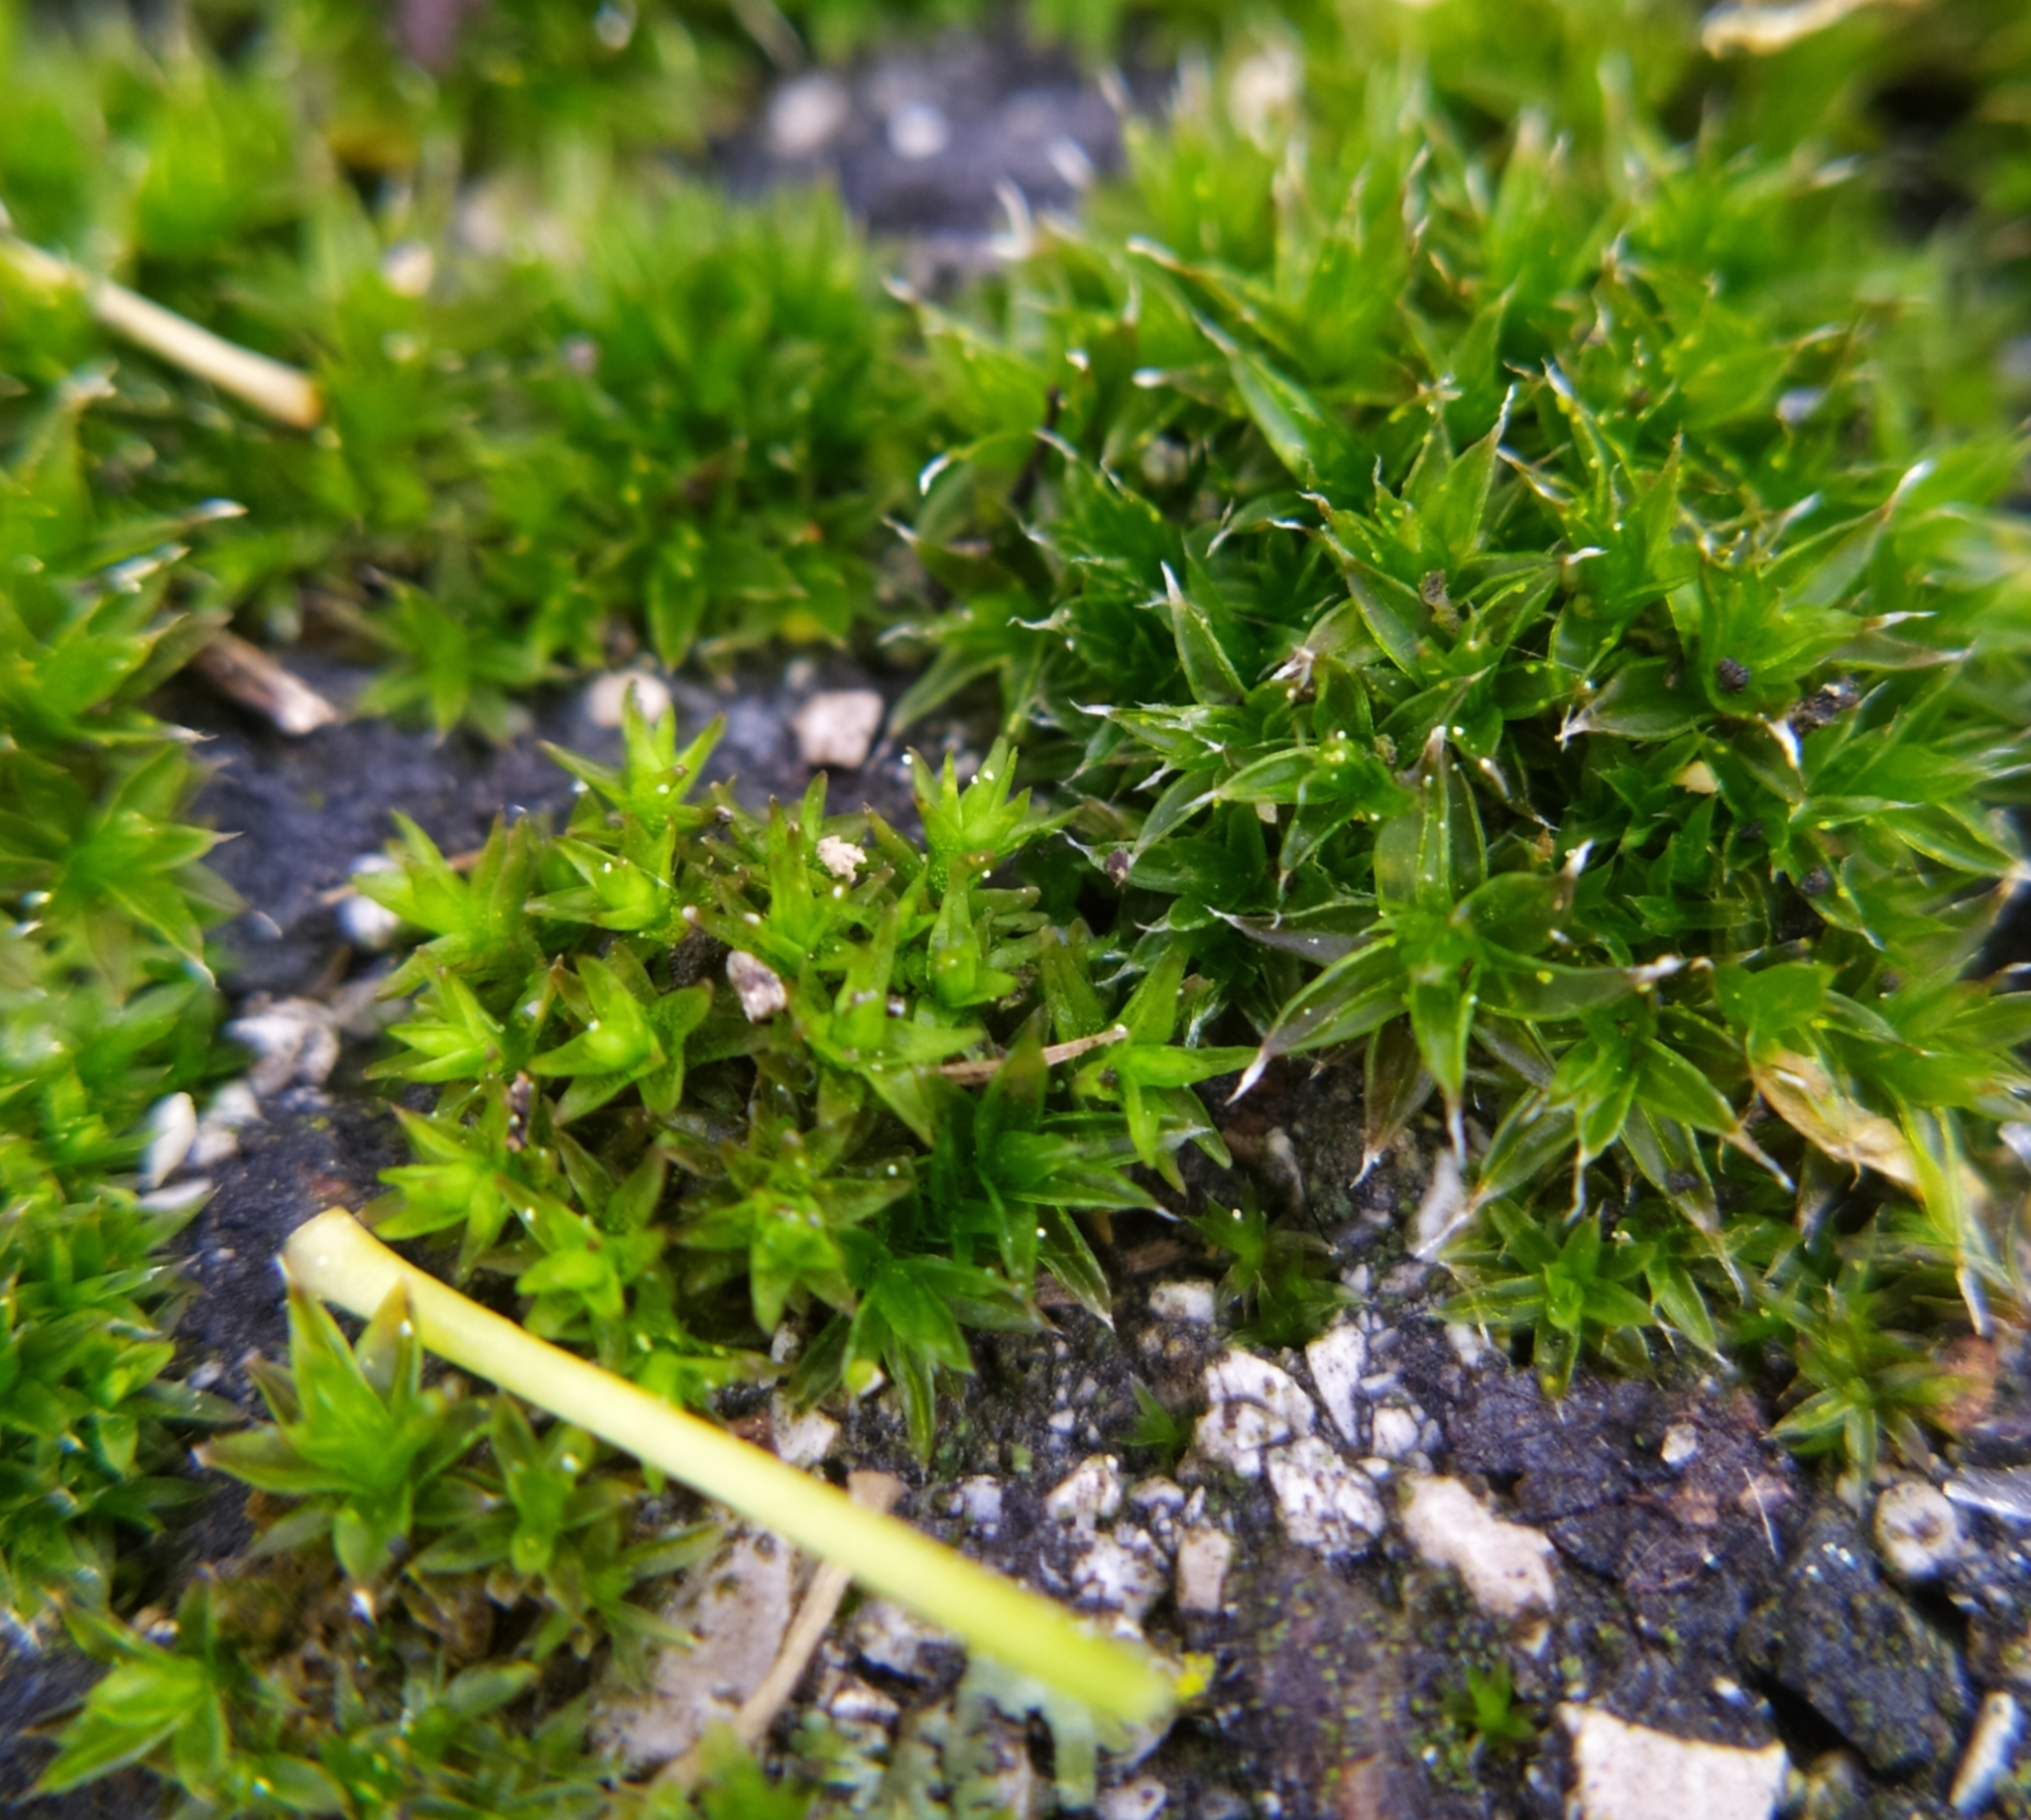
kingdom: Plantae
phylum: Bryophyta
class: Bryopsida
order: Orthotrichales
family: Orthotrichaceae
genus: Nyholmiella
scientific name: Nyholmiella obtusifolia
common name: Blunt-leaved bristle-moss
